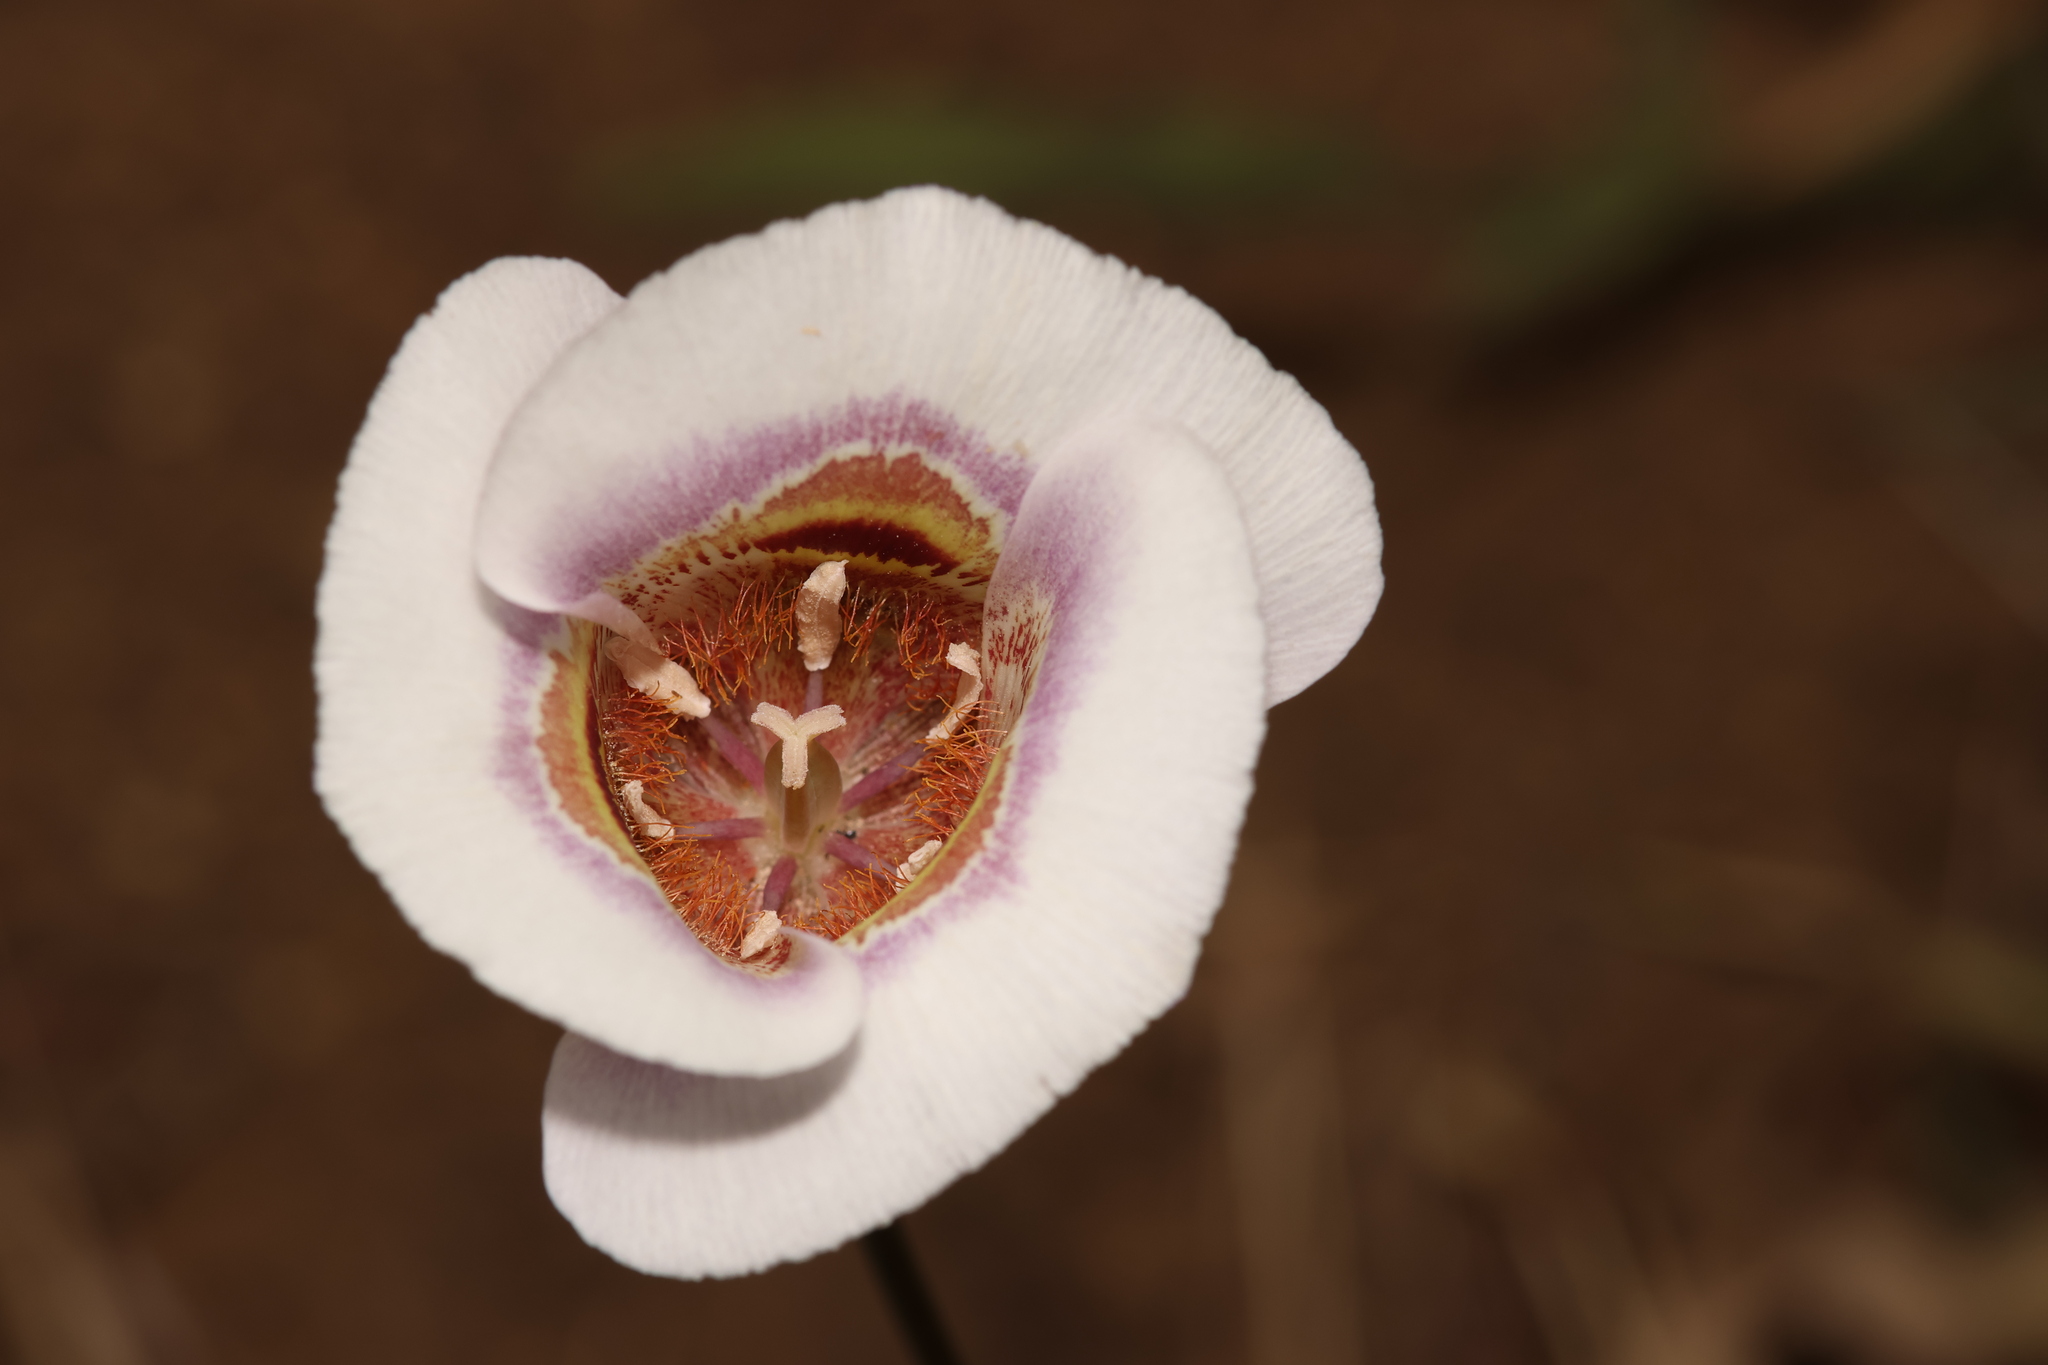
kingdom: Plantae
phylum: Tracheophyta
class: Liliopsida
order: Liliales
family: Liliaceae
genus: Calochortus
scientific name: Calochortus argillosus
